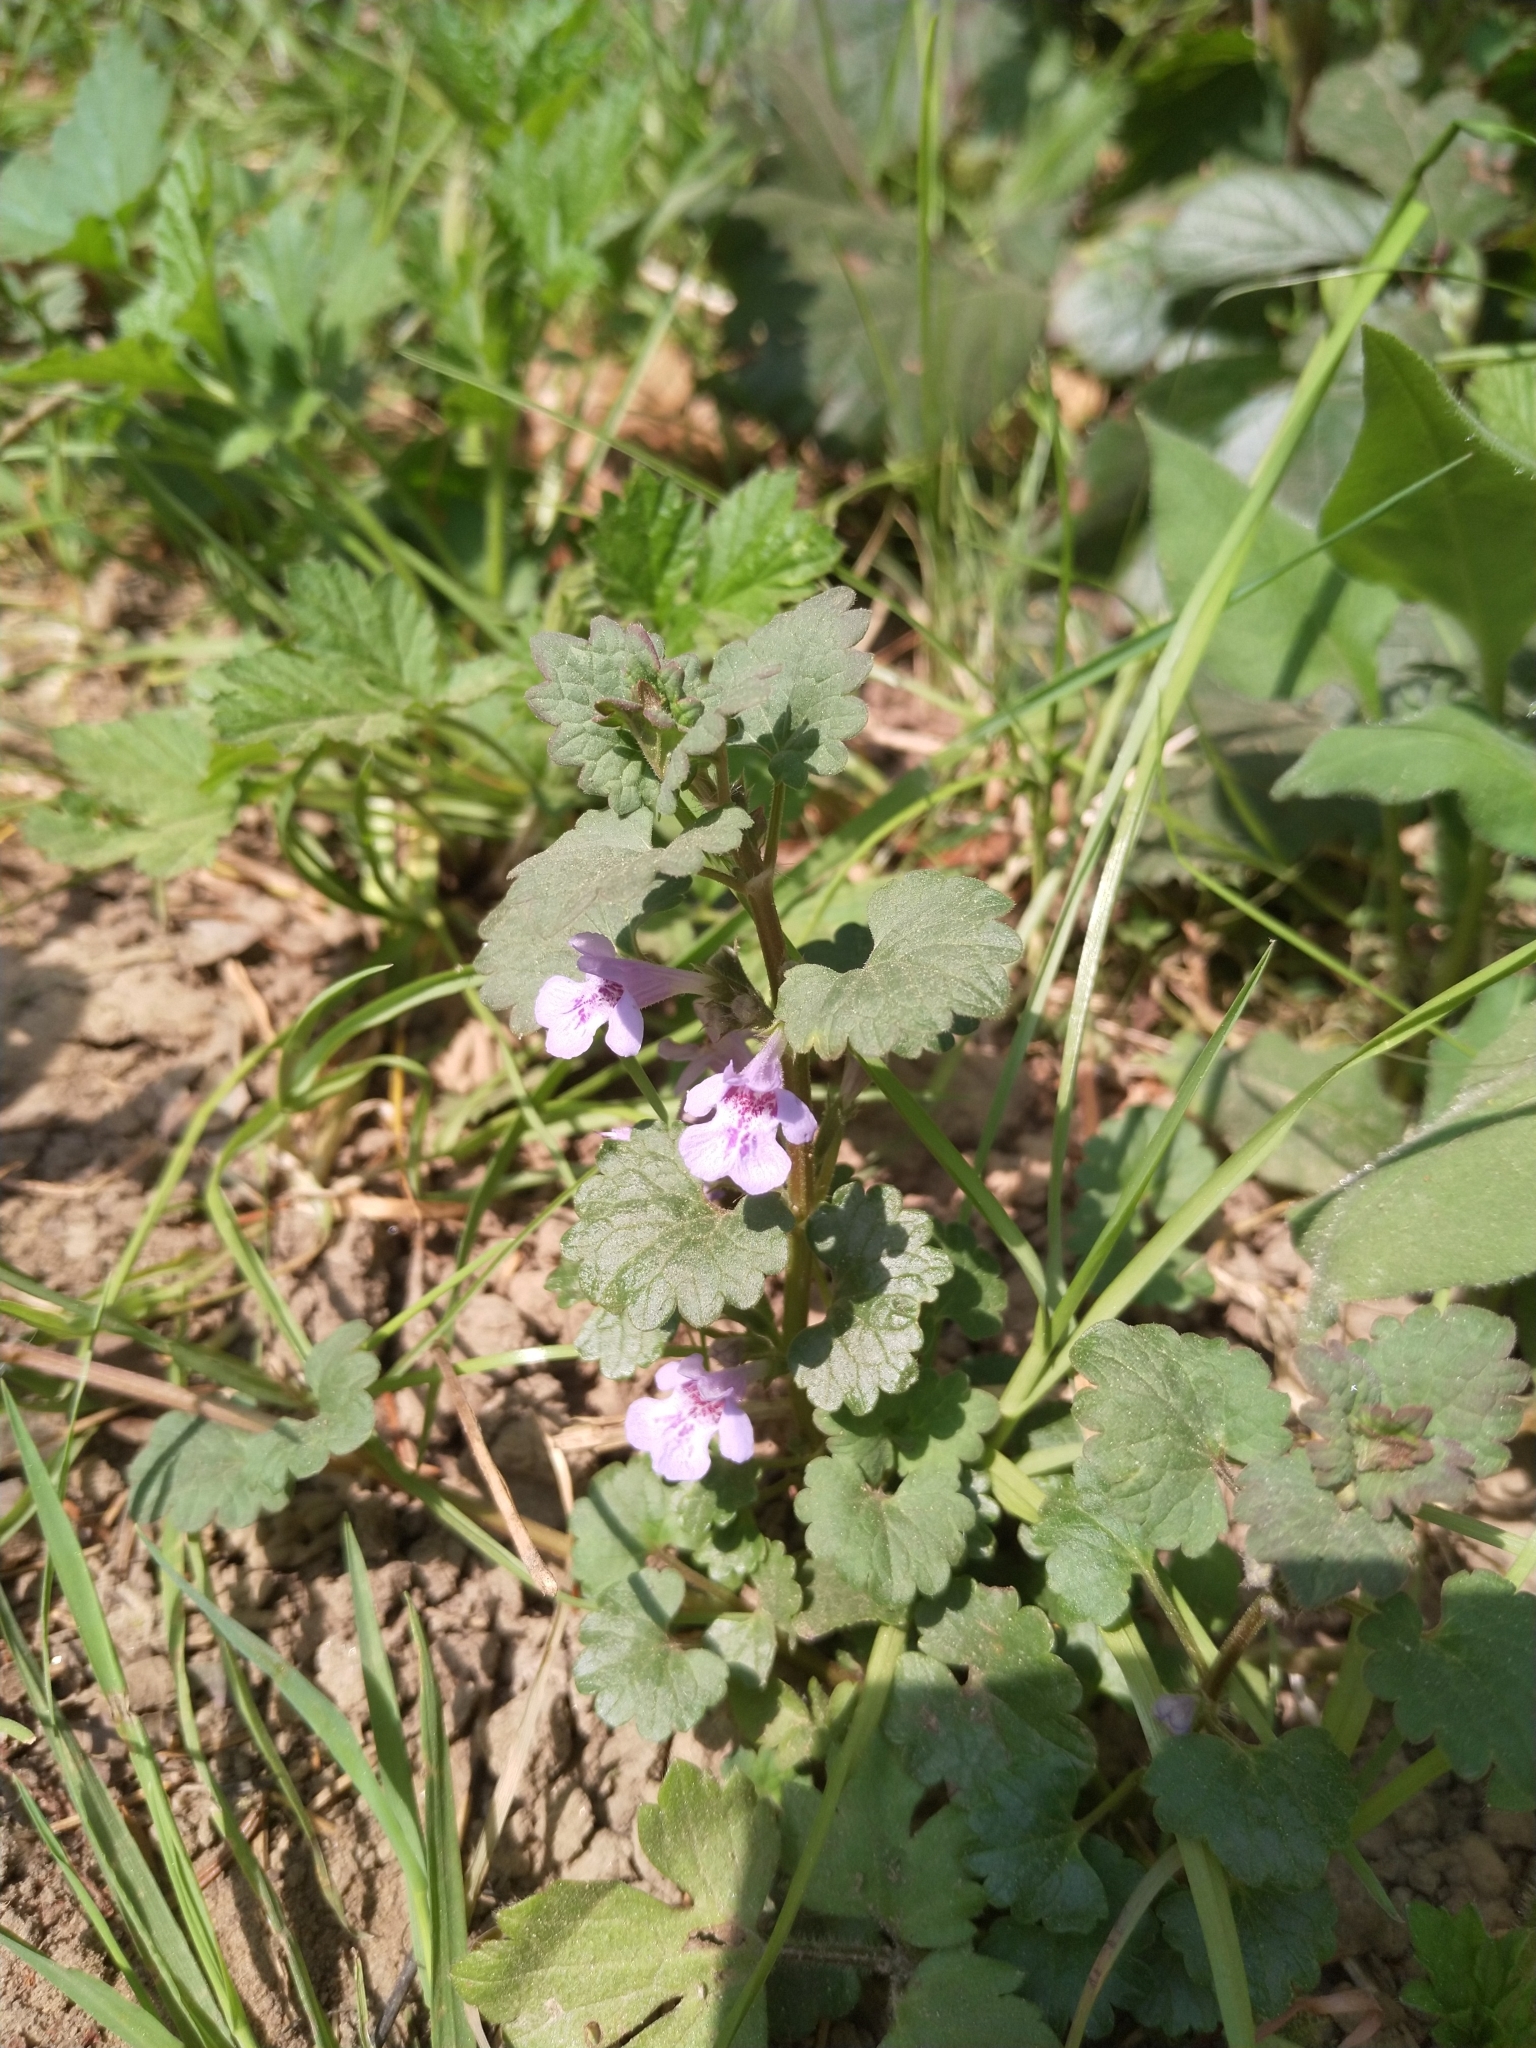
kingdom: Plantae
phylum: Tracheophyta
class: Magnoliopsida
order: Lamiales
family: Lamiaceae
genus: Glechoma
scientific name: Glechoma hederacea
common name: Ground ivy
